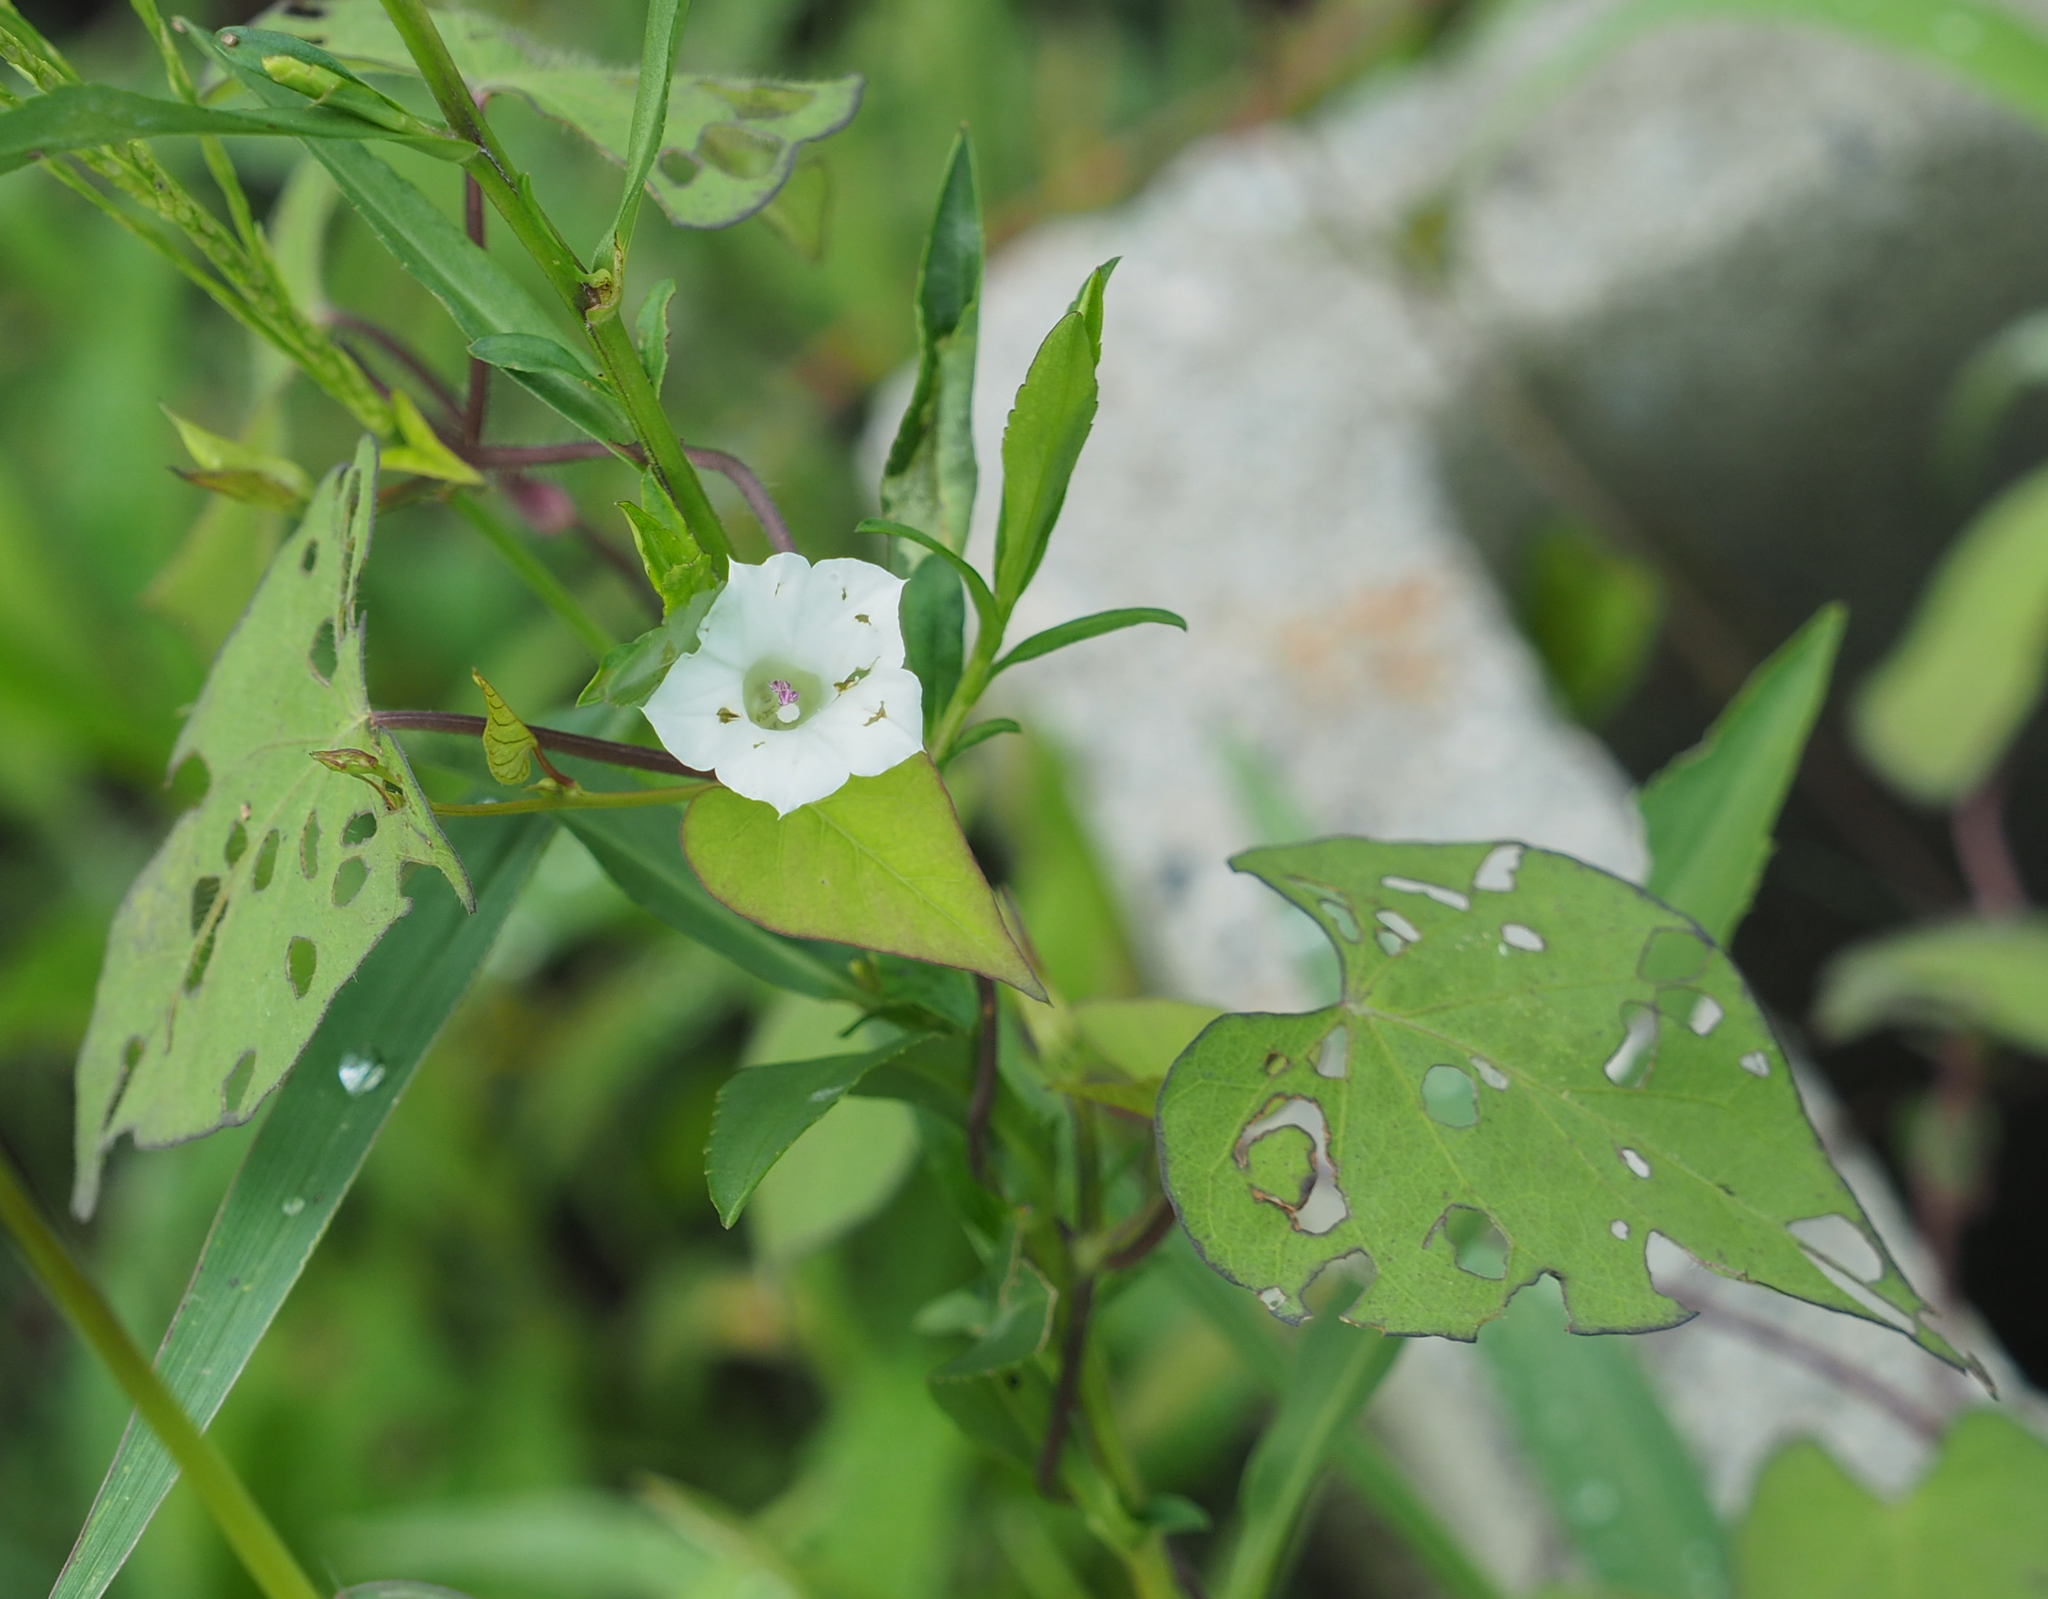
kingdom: Plantae
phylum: Tracheophyta
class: Magnoliopsida
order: Solanales
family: Convolvulaceae
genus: Ipomoea
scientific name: Ipomoea lacunosa
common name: White morning-glory
